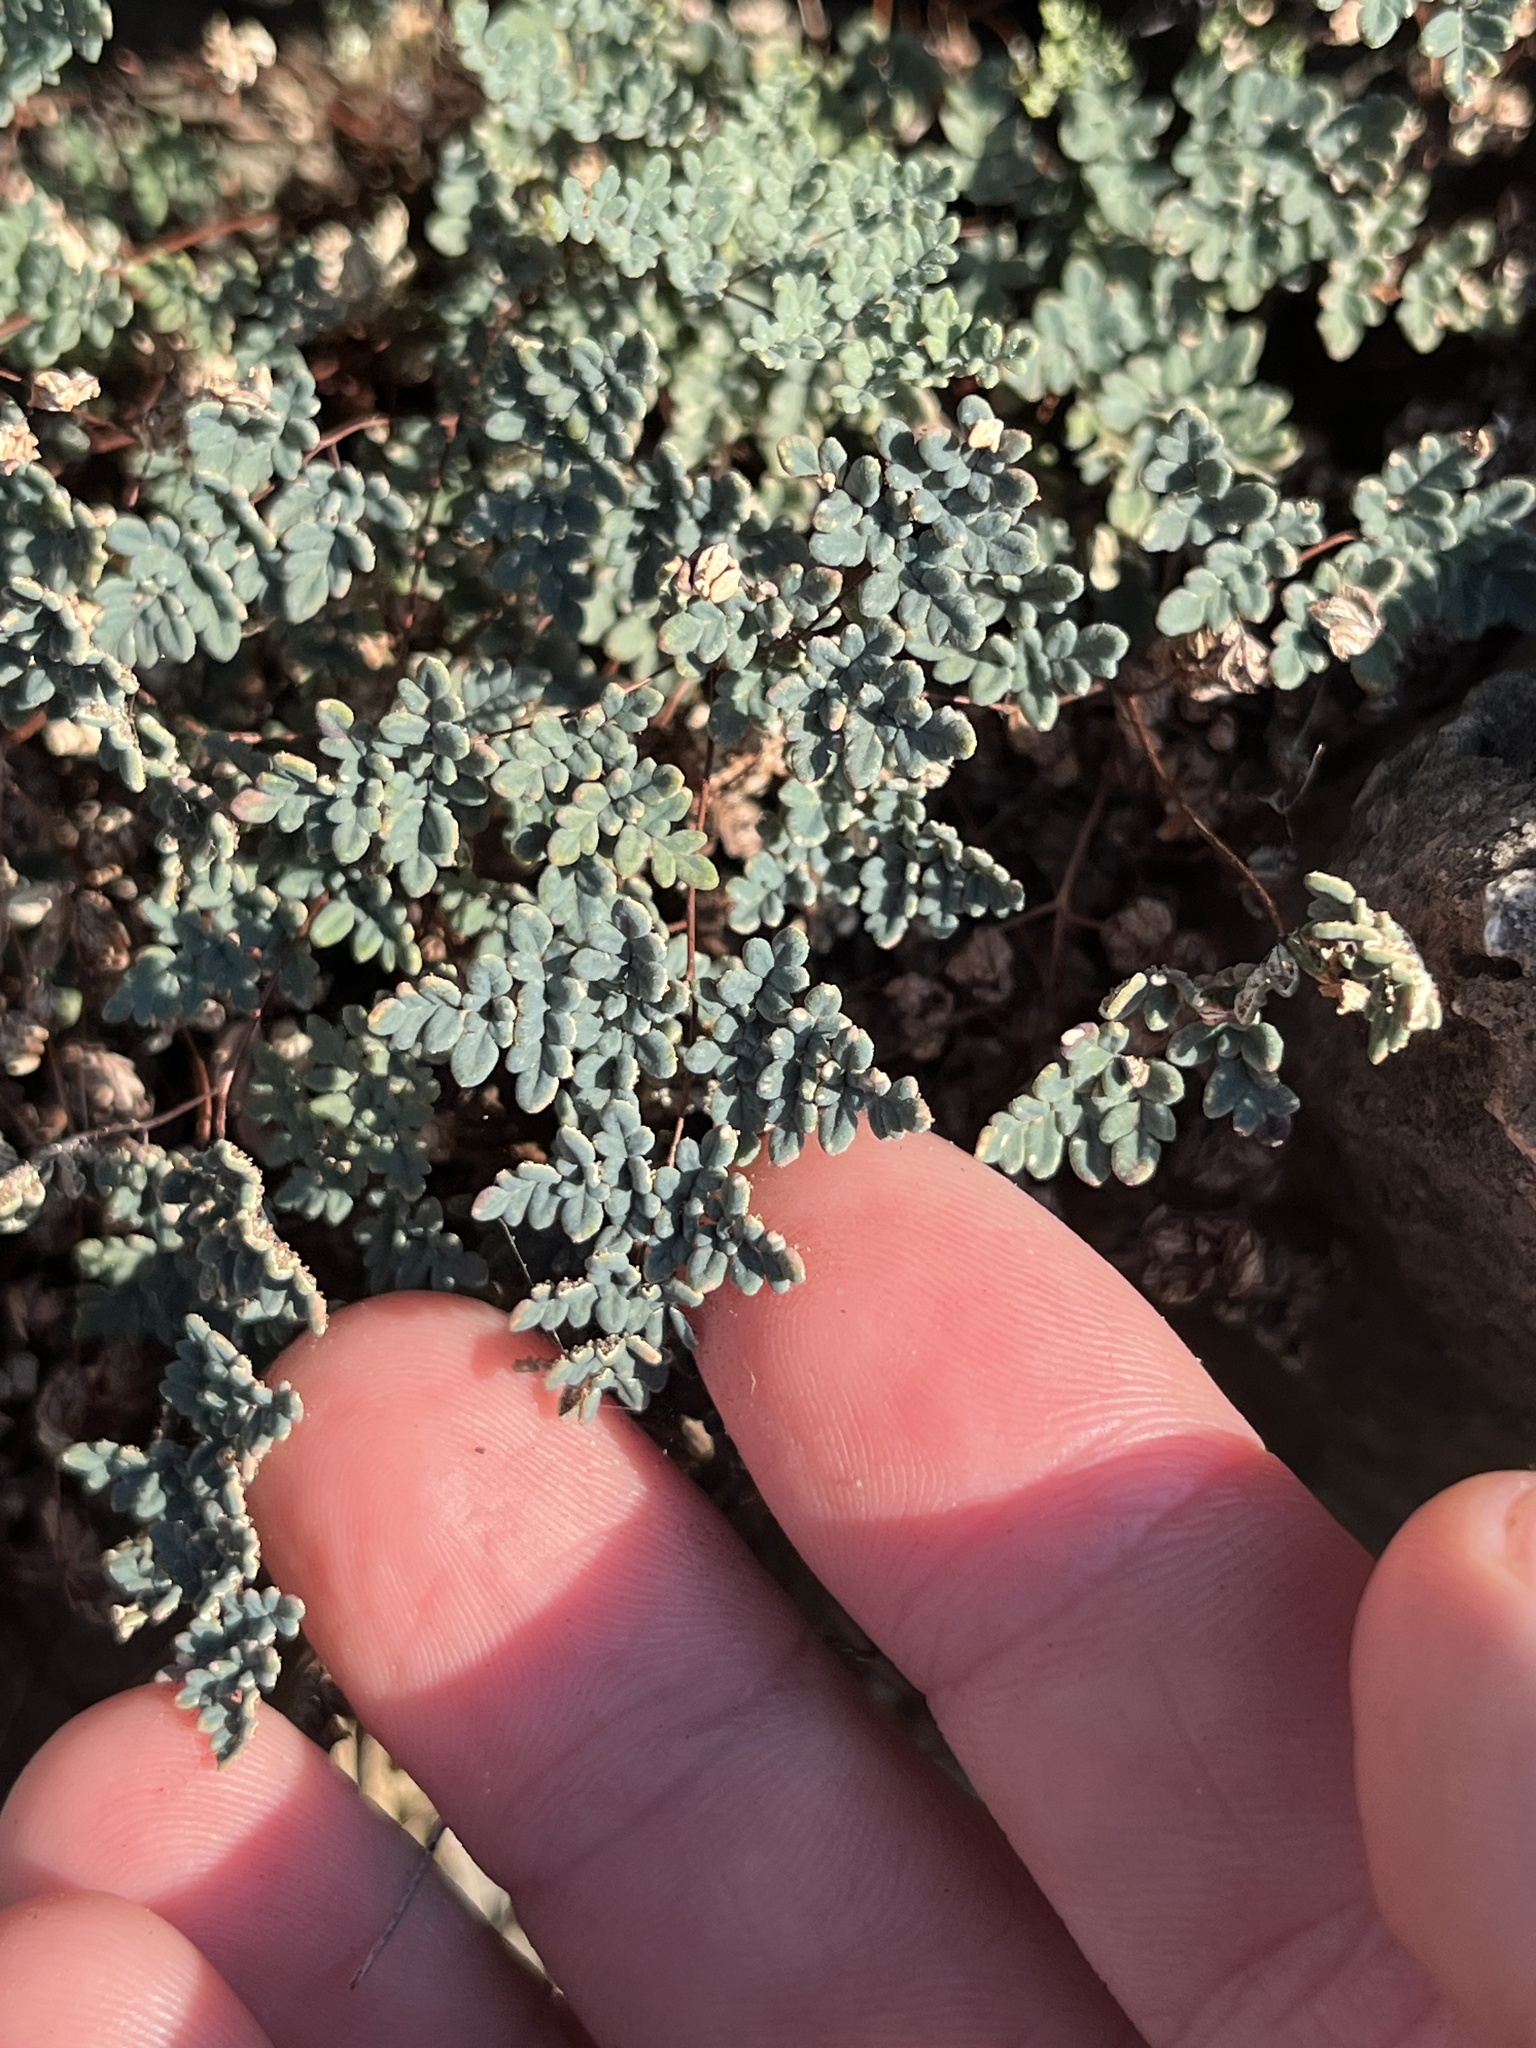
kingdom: Plantae
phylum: Tracheophyta
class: Polypodiopsida
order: Polypodiales
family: Pteridaceae
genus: Argyrochosma
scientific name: Argyrochosma dealbata
